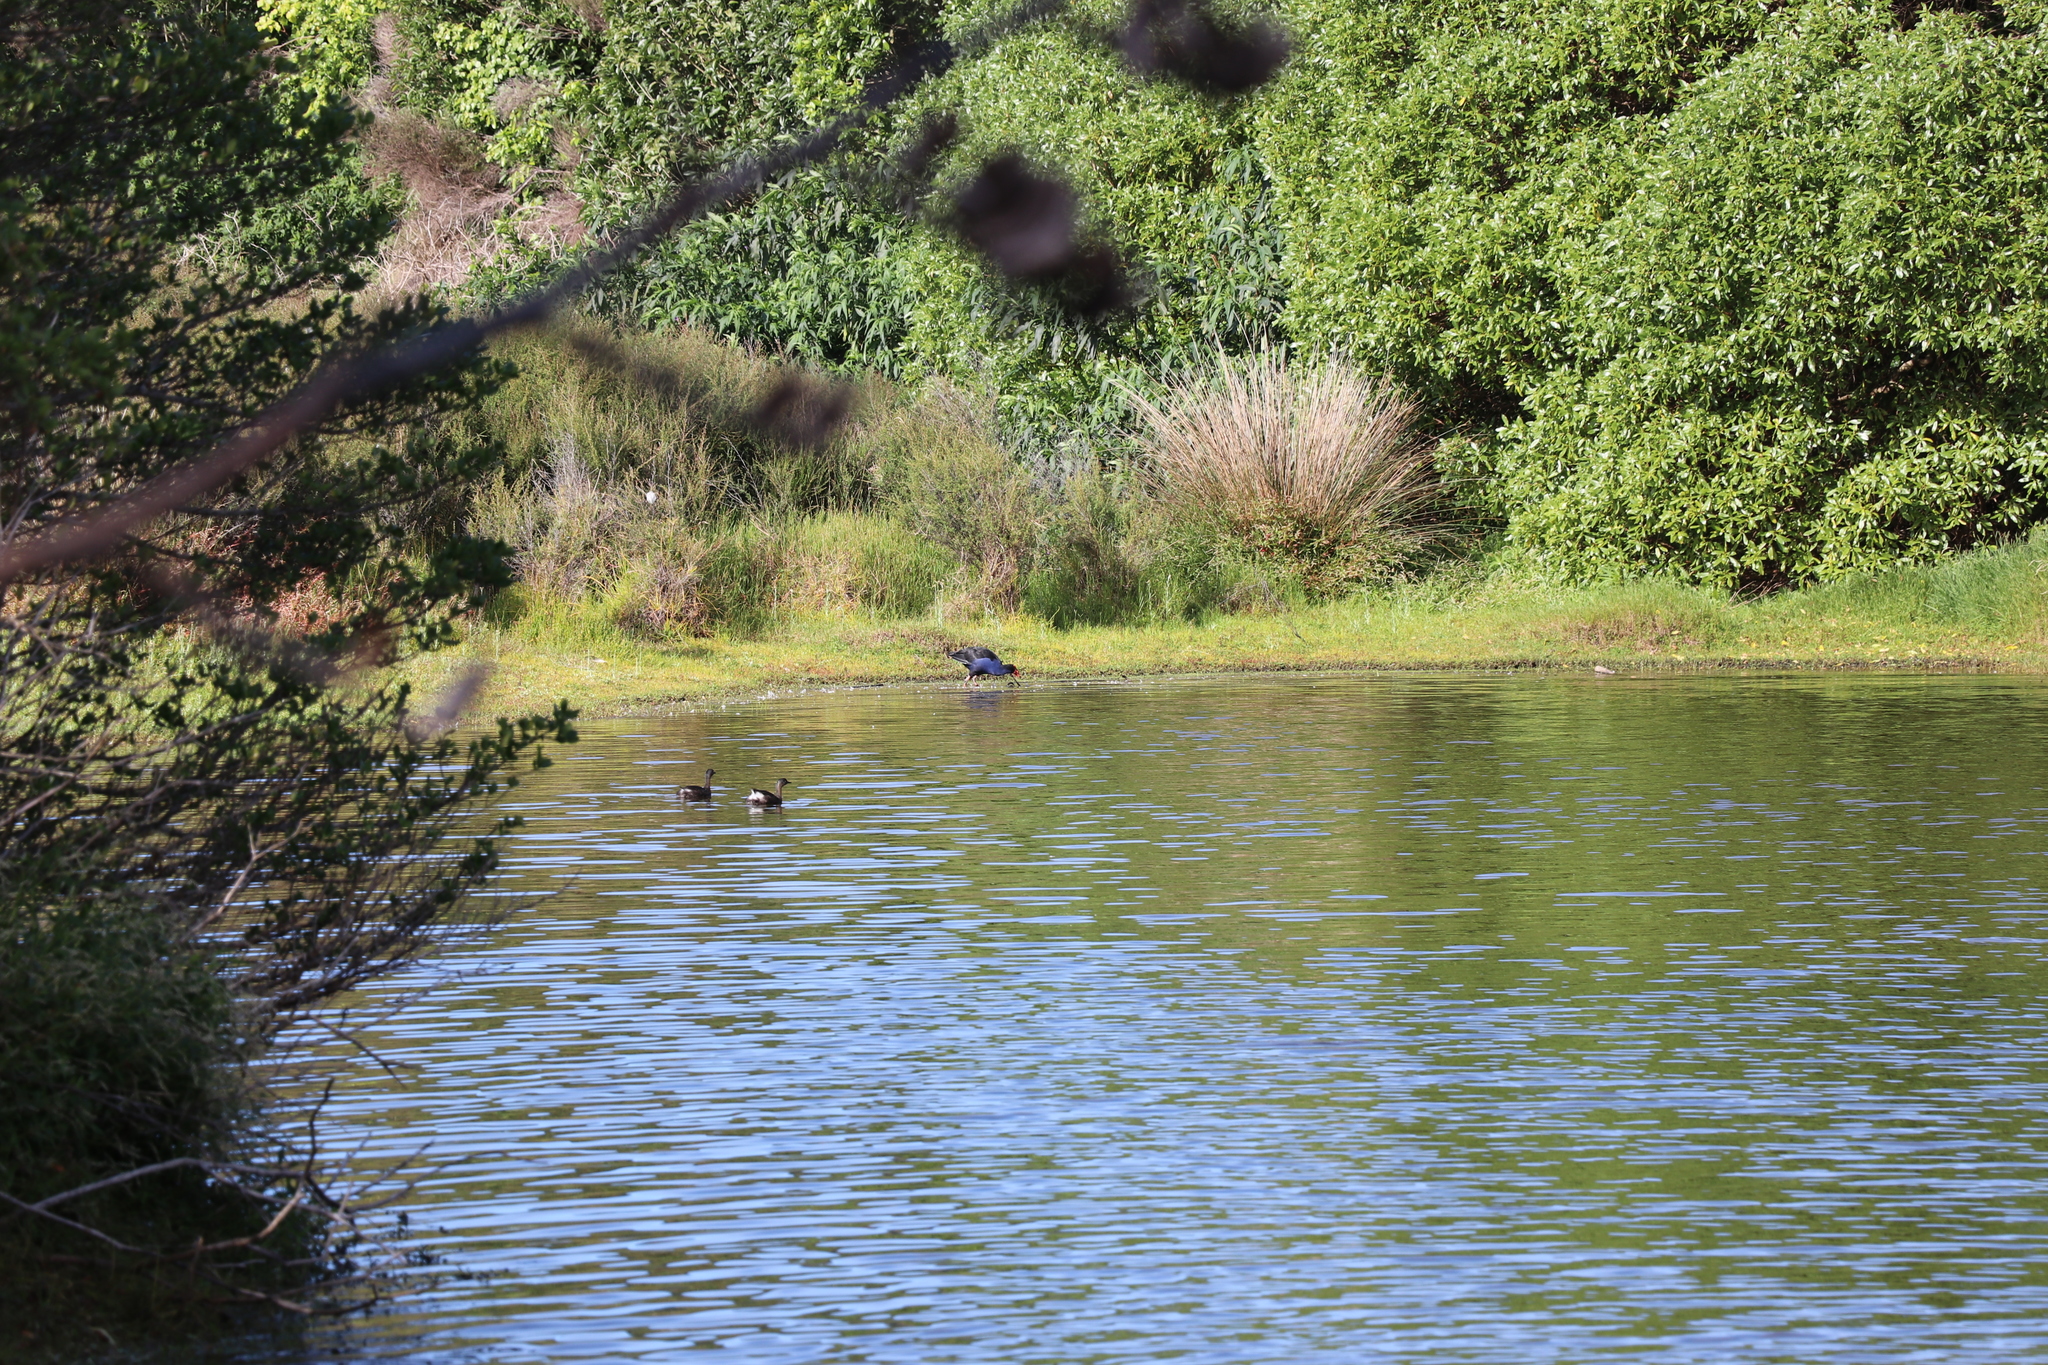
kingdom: Animalia
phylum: Chordata
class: Aves
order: Gruiformes
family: Rallidae
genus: Porphyrio
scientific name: Porphyrio melanotus
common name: Australasian swamphen
